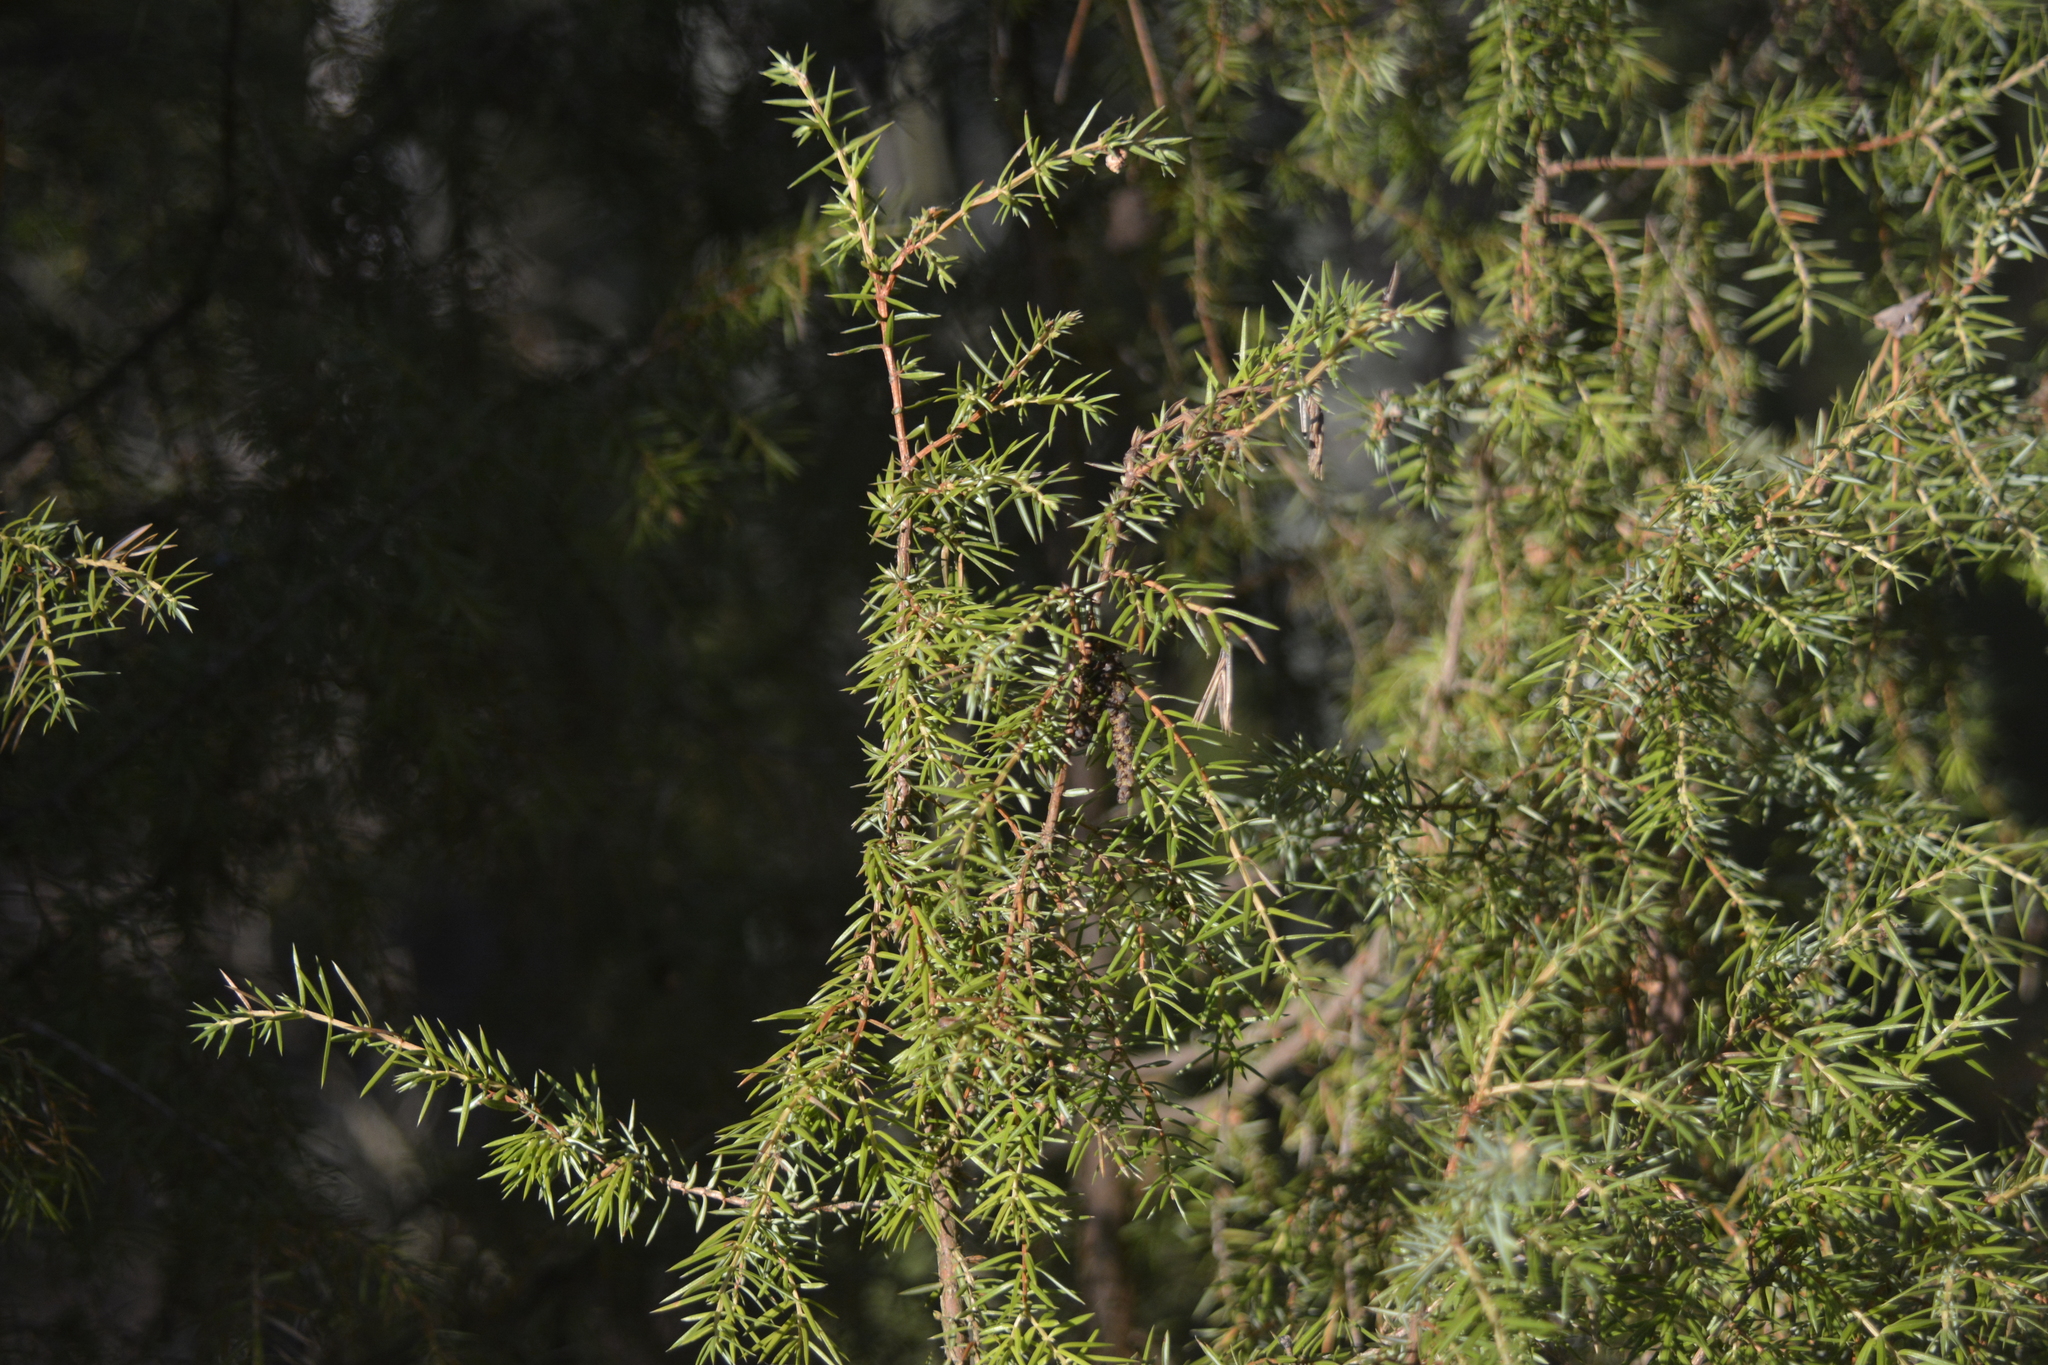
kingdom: Plantae
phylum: Tracheophyta
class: Pinopsida
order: Pinales
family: Cupressaceae
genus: Juniperus
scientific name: Juniperus communis
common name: Common juniper
